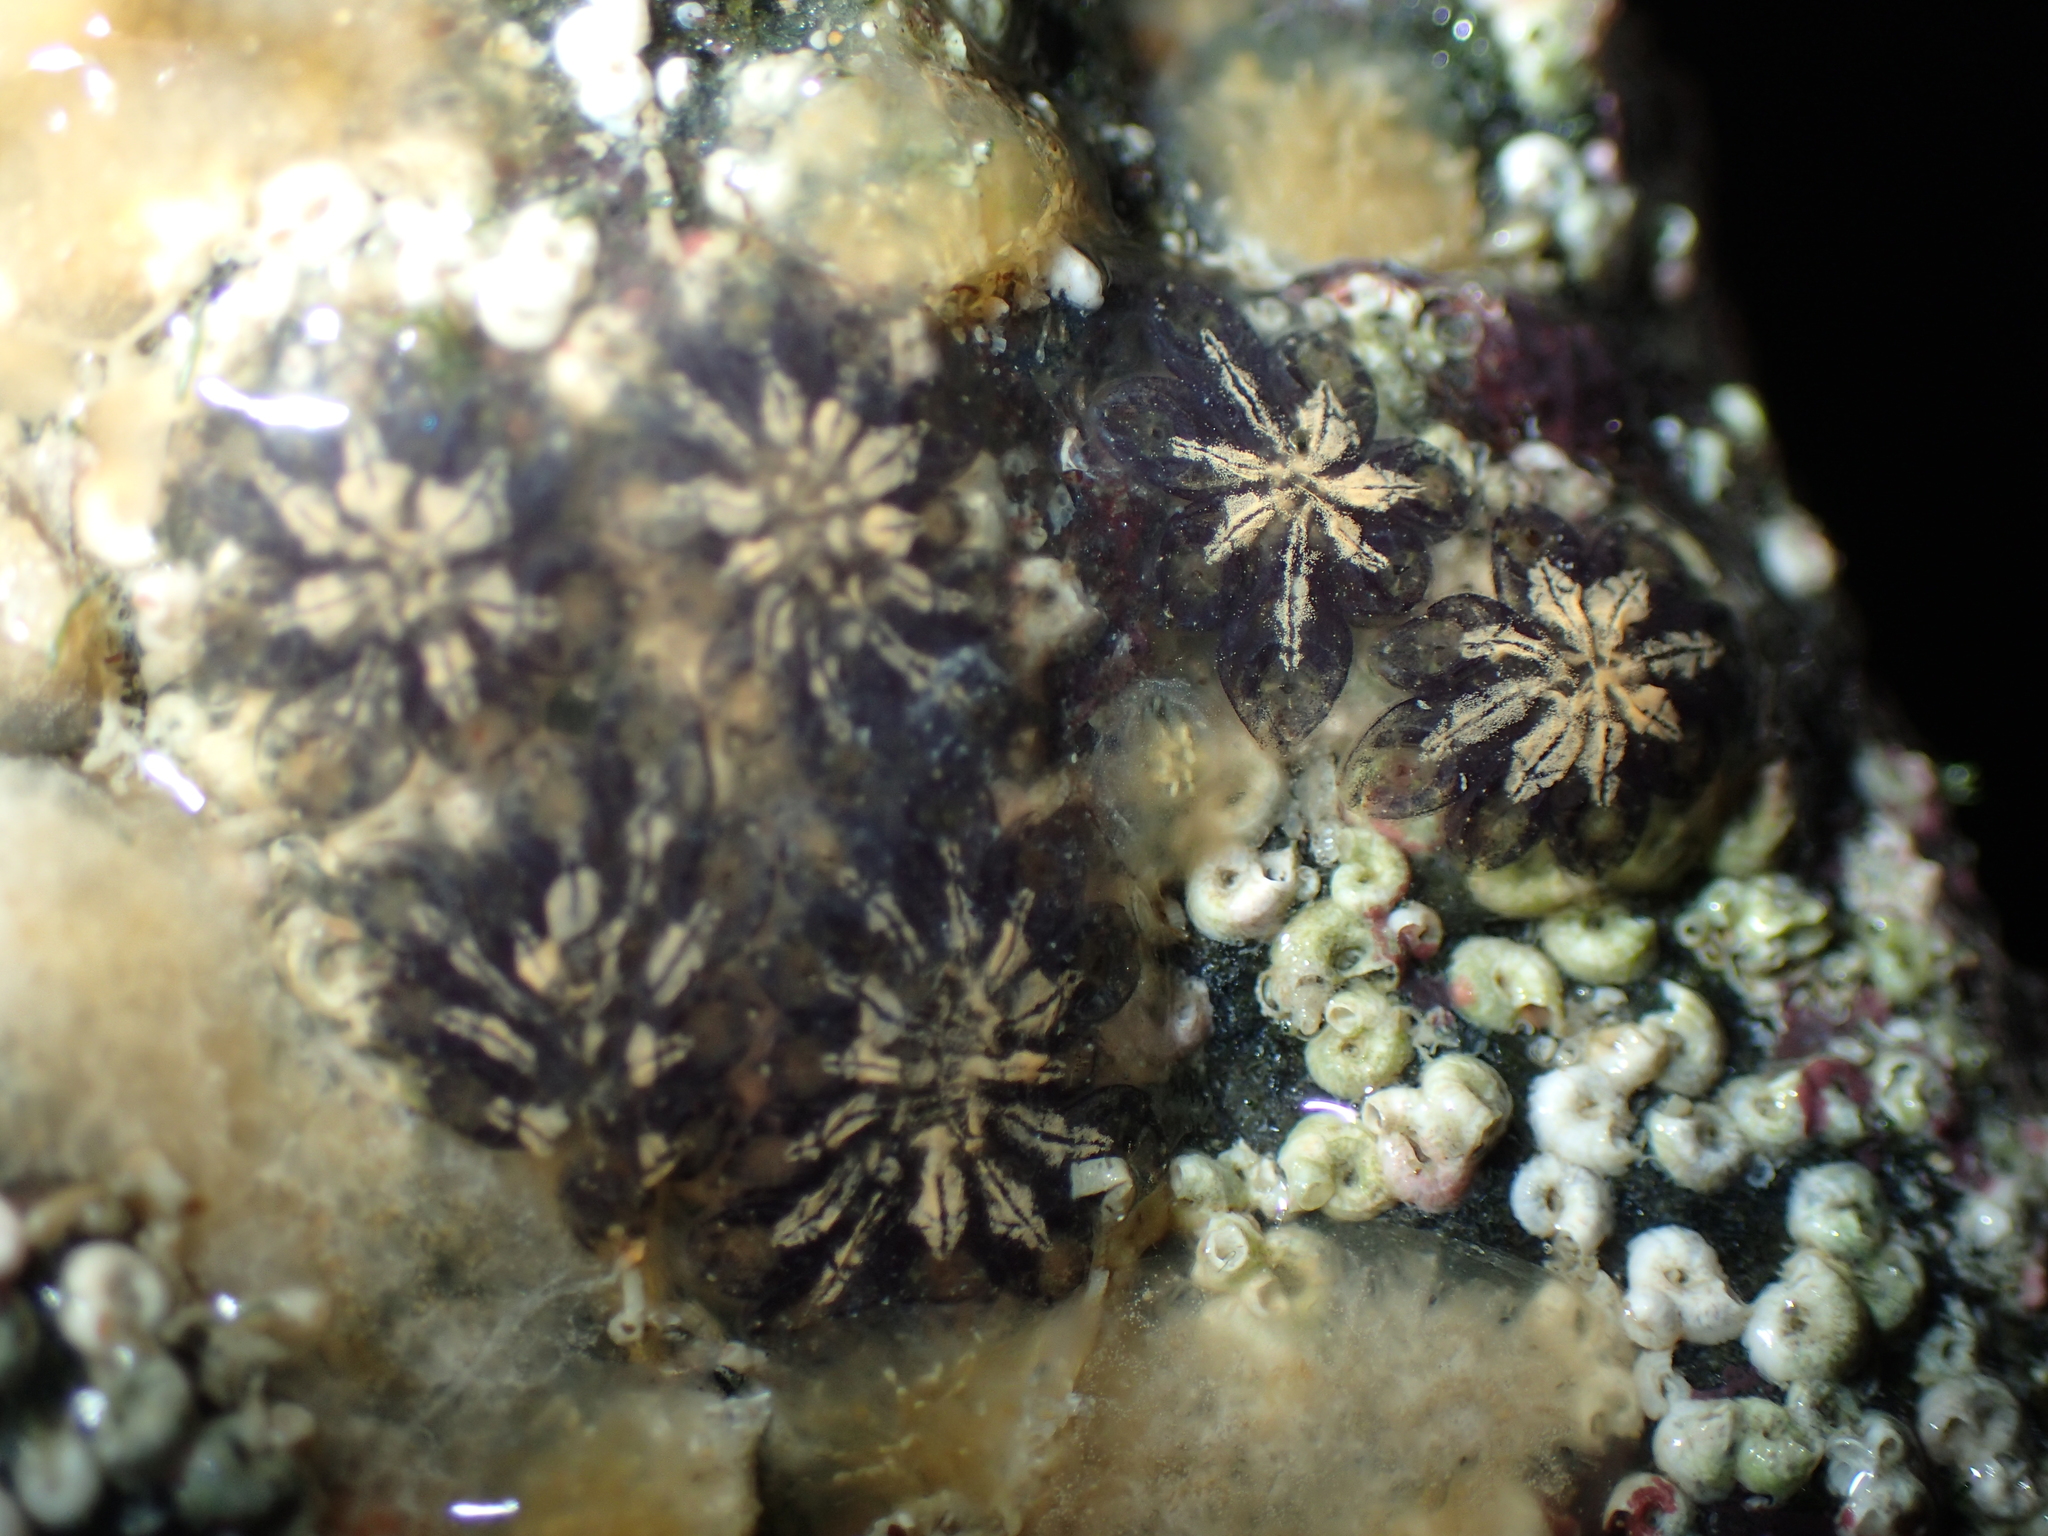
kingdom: Animalia
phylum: Chordata
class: Ascidiacea
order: Stolidobranchia
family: Styelidae
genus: Botryllus
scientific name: Botryllus schlosseri
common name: Golden star tunicate
